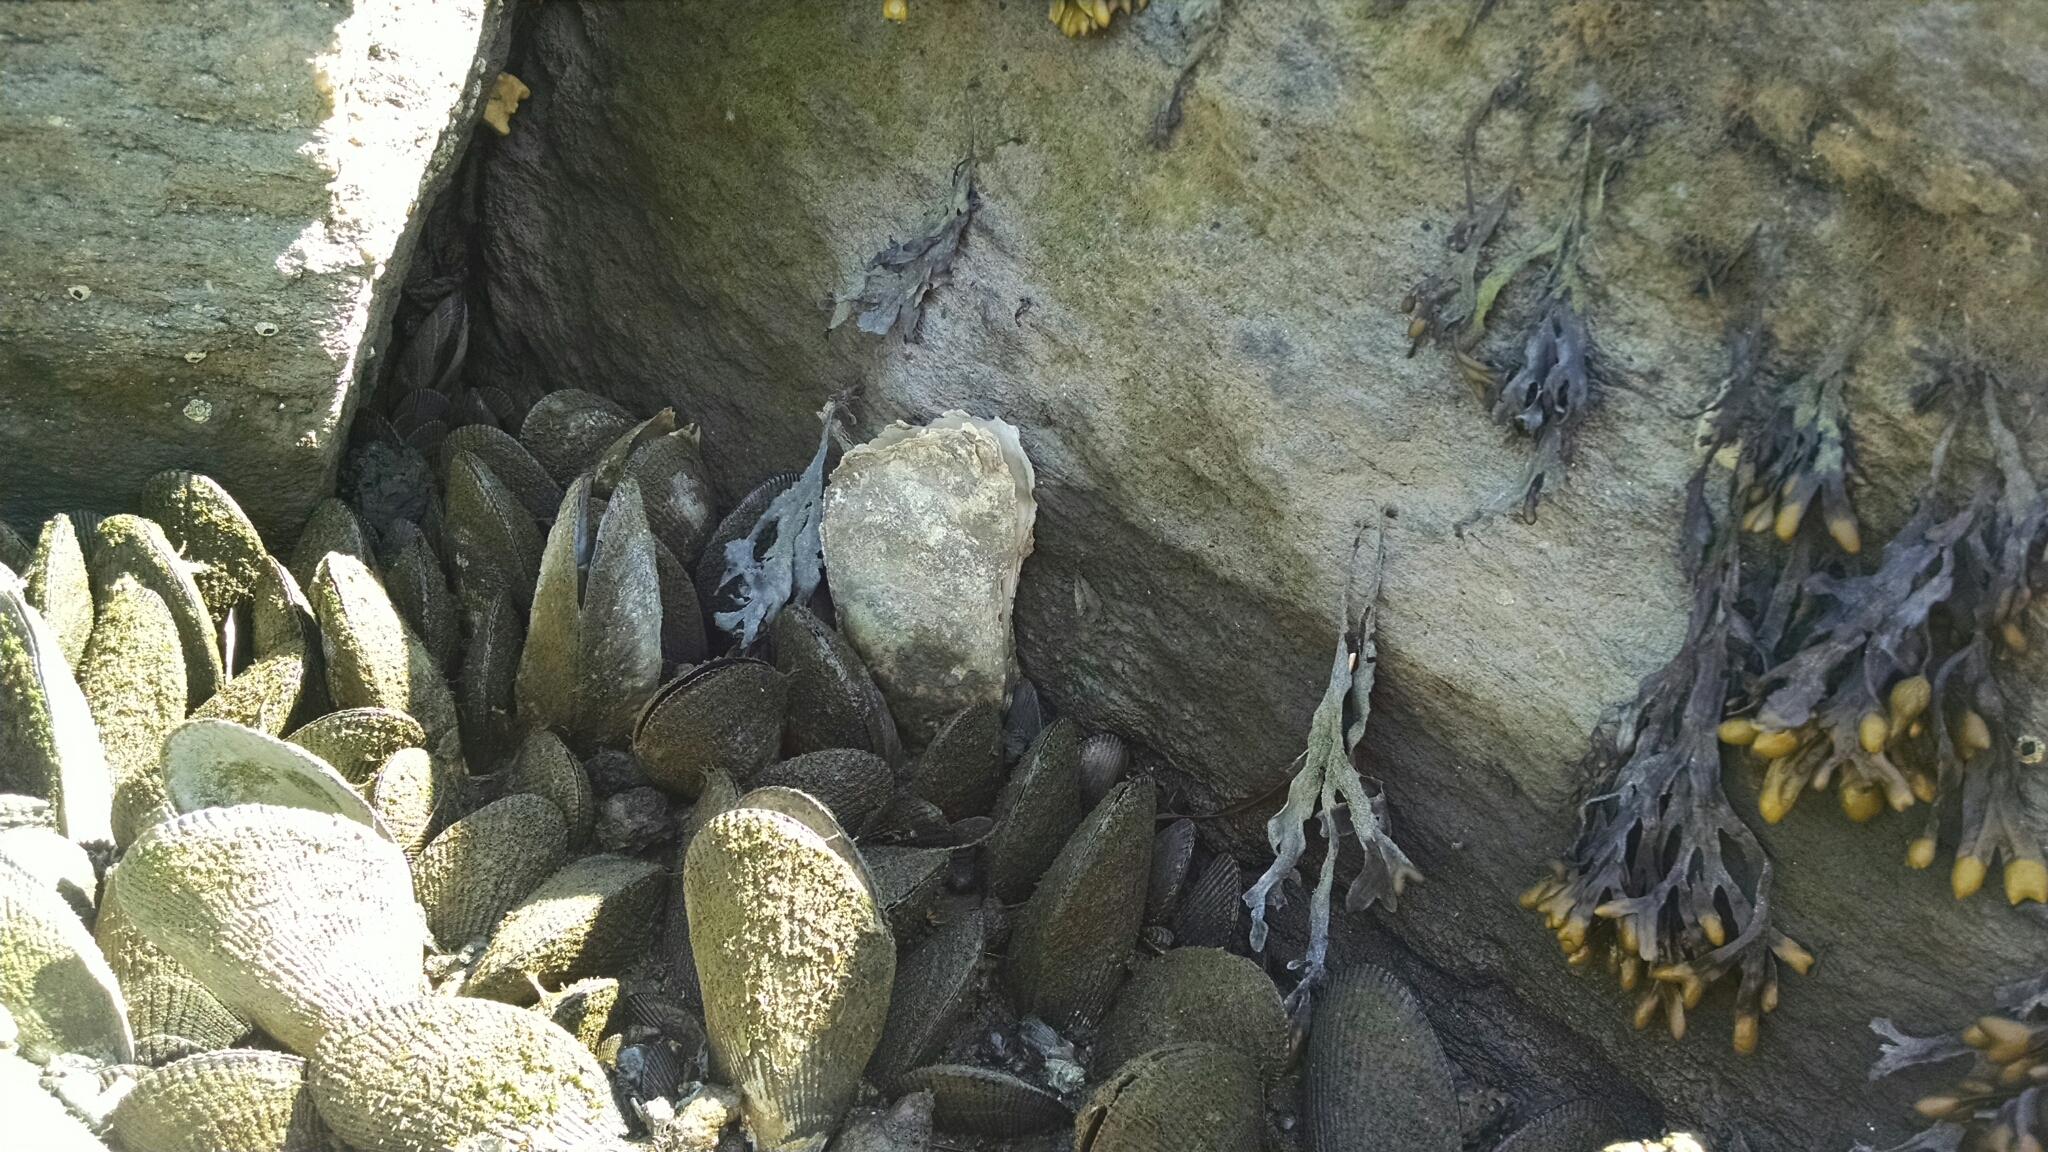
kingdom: Animalia
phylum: Mollusca
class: Bivalvia
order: Ostreida
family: Ostreidae
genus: Crassostrea
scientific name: Crassostrea virginica
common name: American oyster
